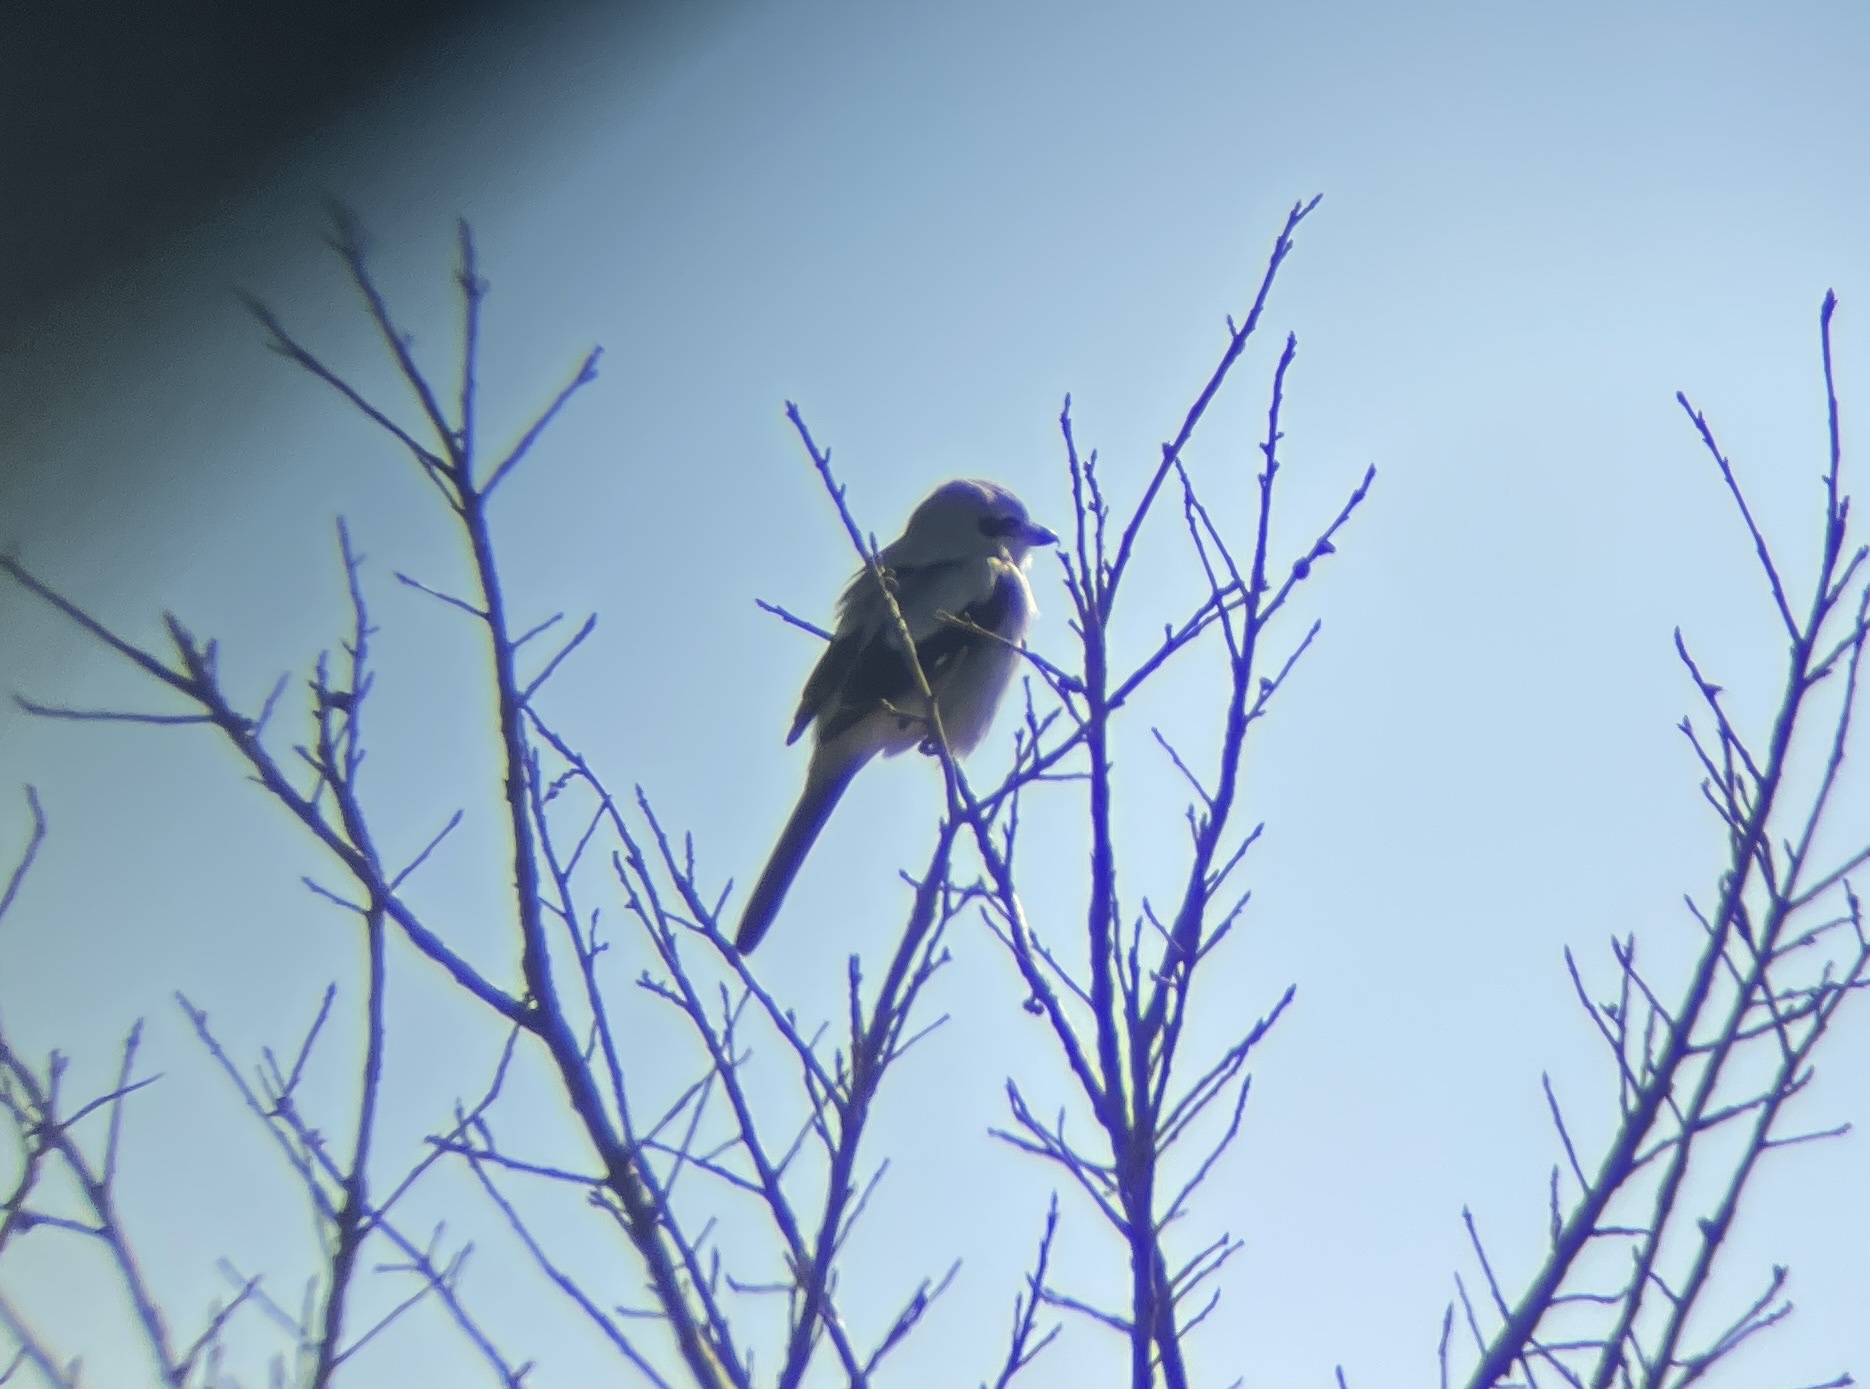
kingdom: Animalia
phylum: Chordata
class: Aves
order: Passeriformes
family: Laniidae
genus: Lanius
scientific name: Lanius borealis
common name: Northern shrike
